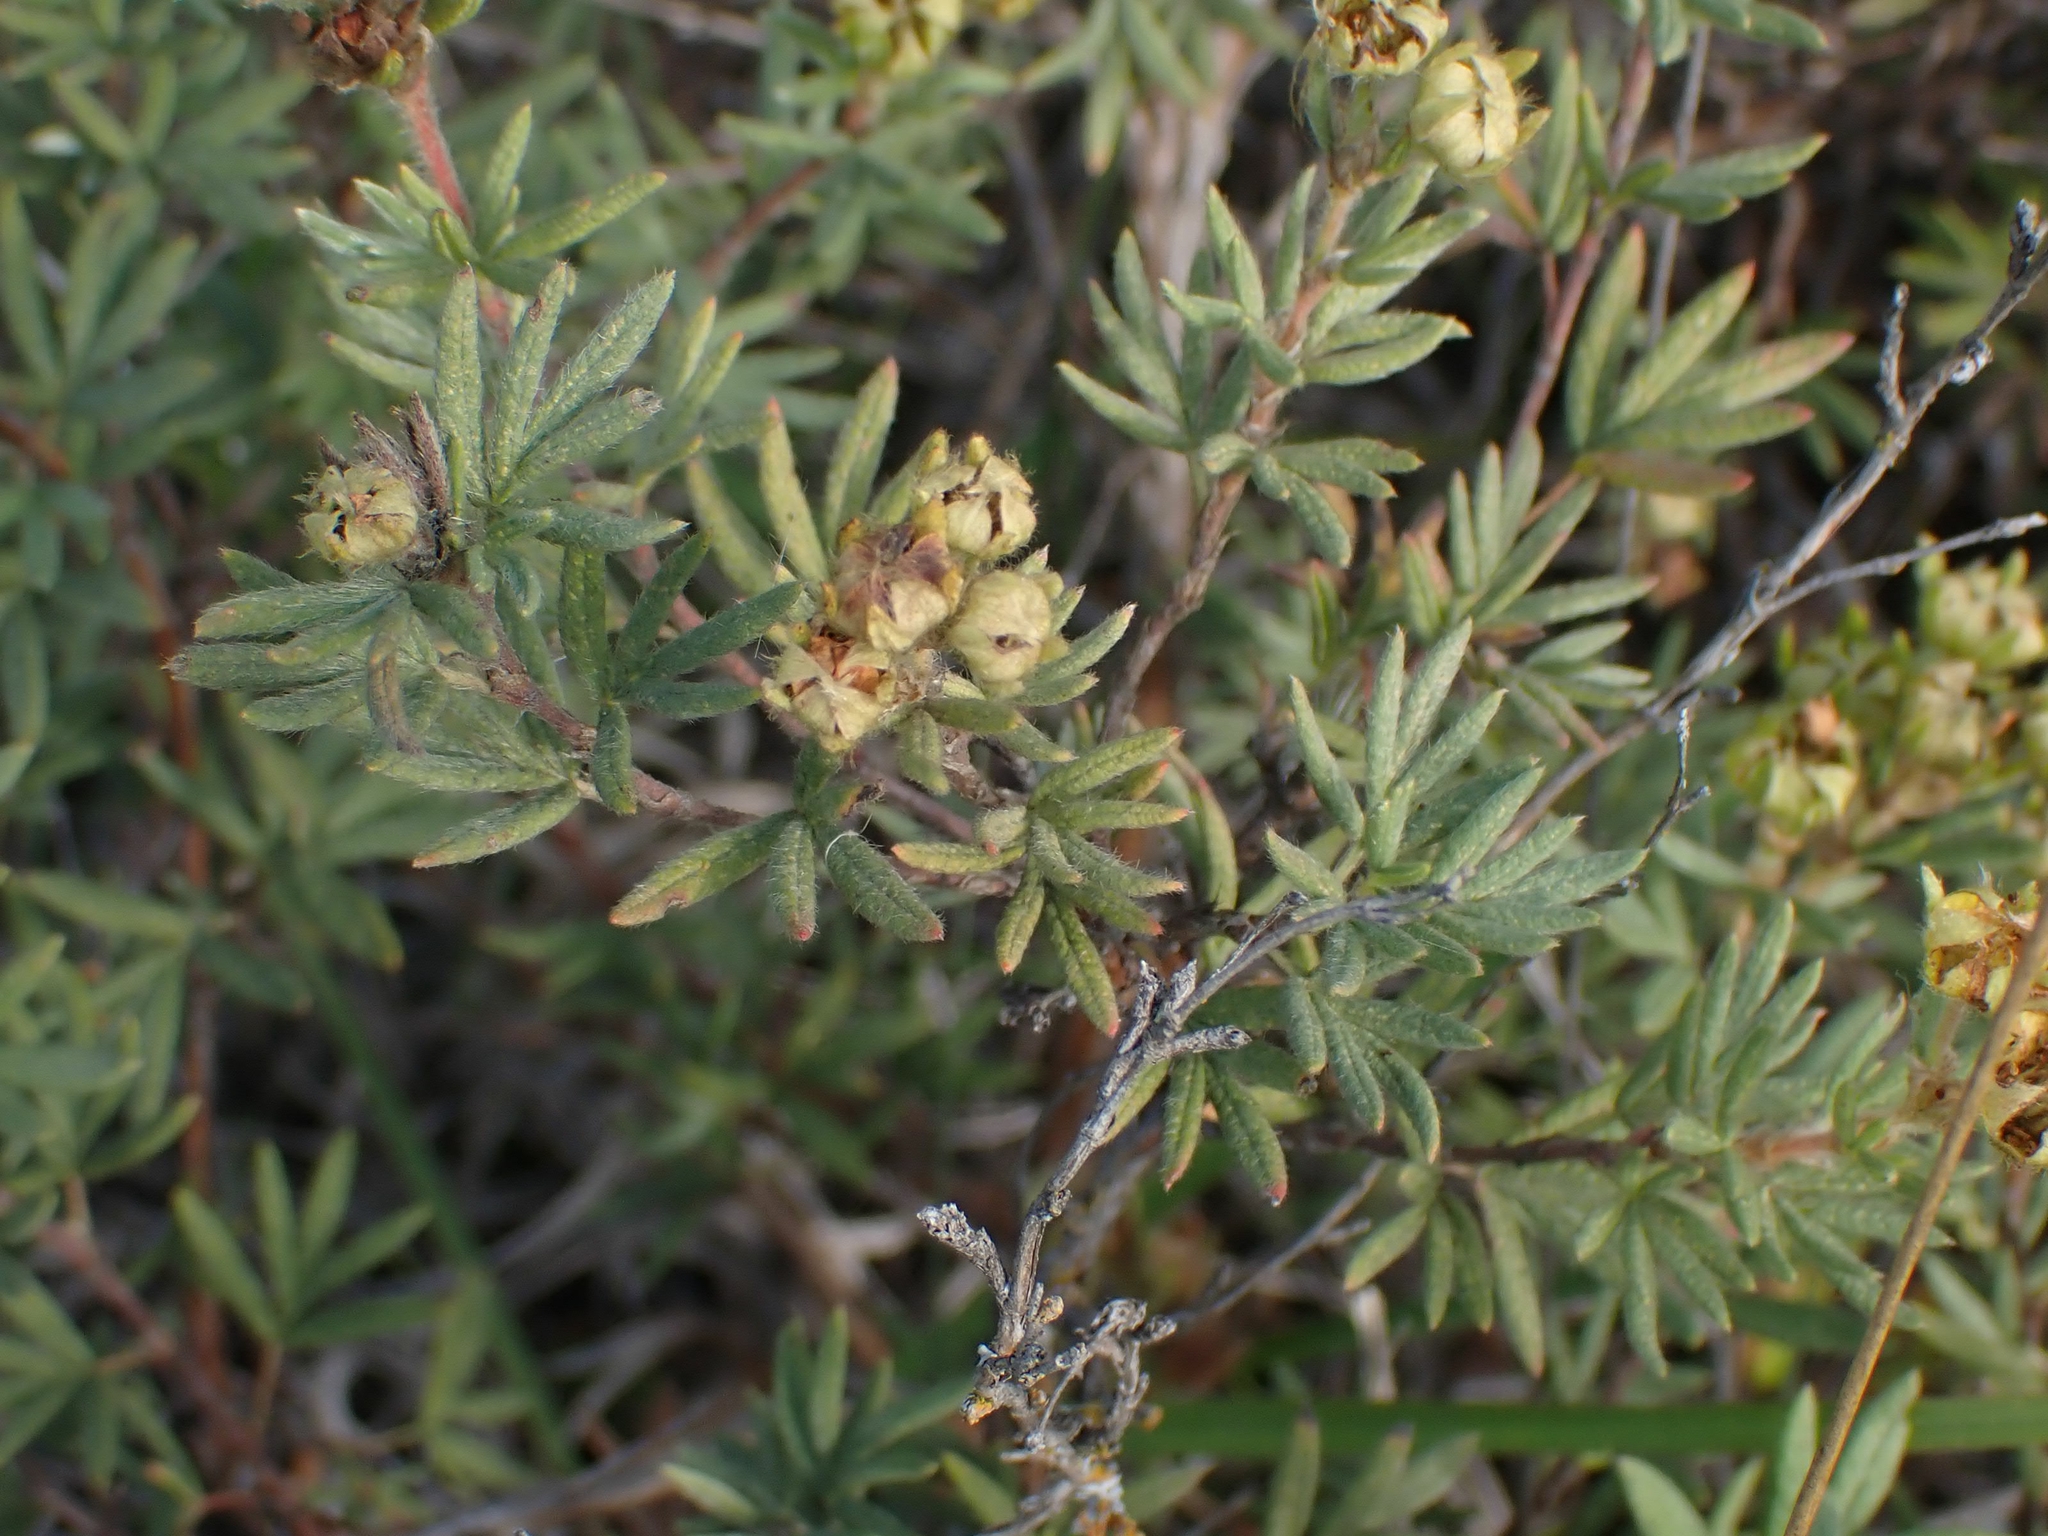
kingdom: Plantae
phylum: Tracheophyta
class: Magnoliopsida
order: Rosales
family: Rosaceae
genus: Dasiphora
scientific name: Dasiphora fruticosa
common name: Shrubby cinquefoil
